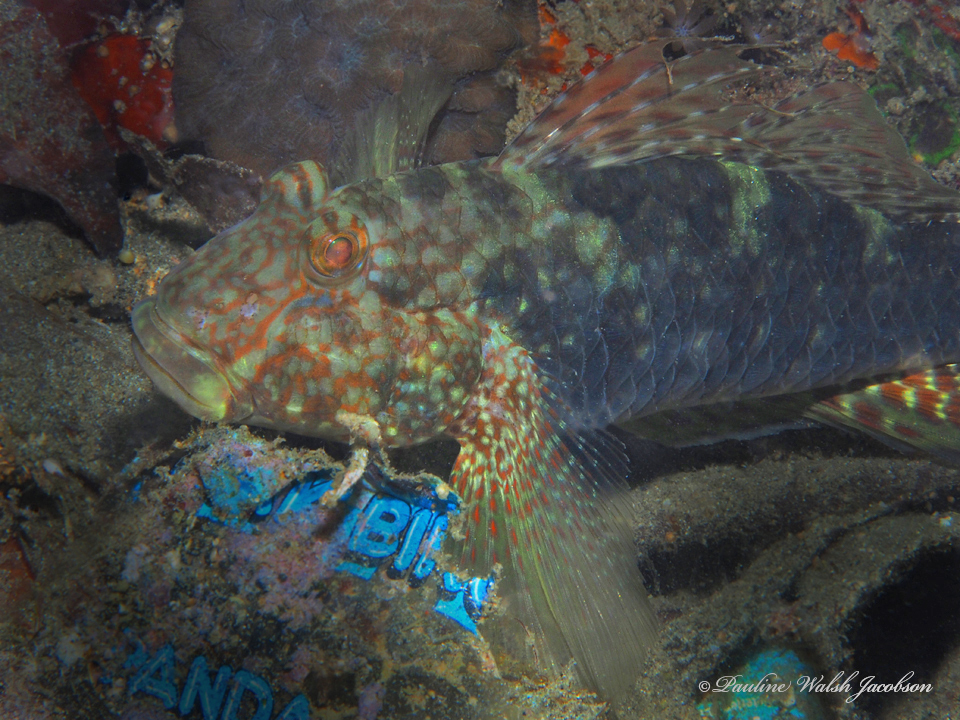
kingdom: Animalia
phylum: Chordata
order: Perciformes
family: Gobiidae
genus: Exyrias
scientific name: Exyrias belissimus
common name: Mud reef-goby
